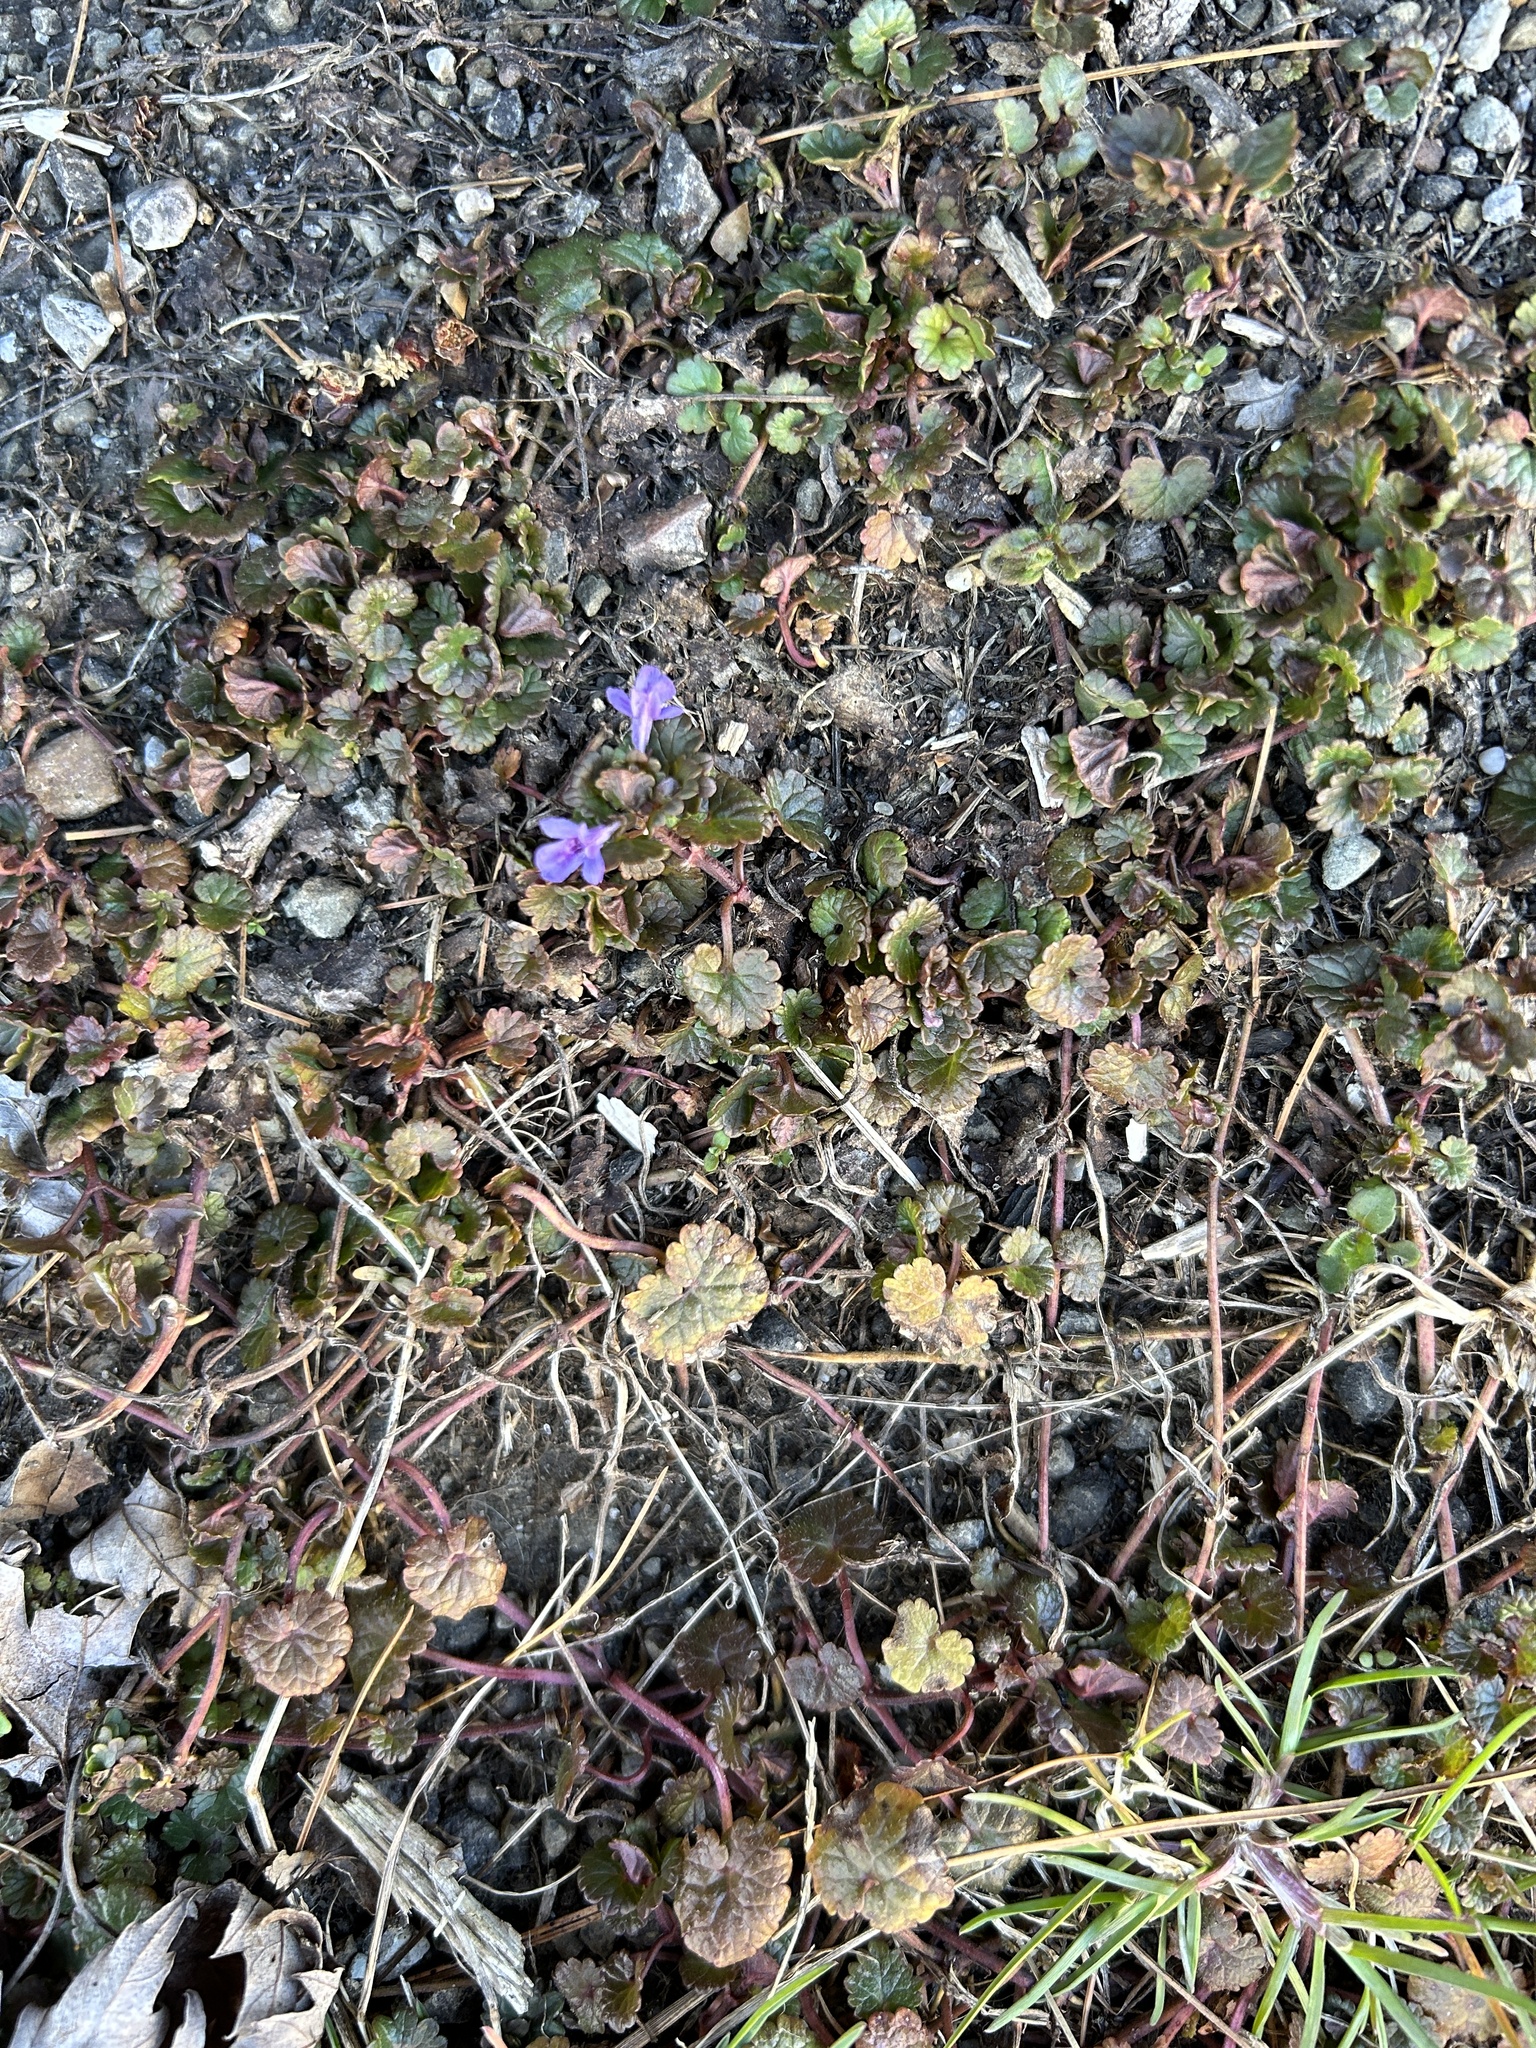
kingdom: Plantae
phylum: Tracheophyta
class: Magnoliopsida
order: Lamiales
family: Lamiaceae
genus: Glechoma
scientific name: Glechoma hederacea
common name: Ground ivy
